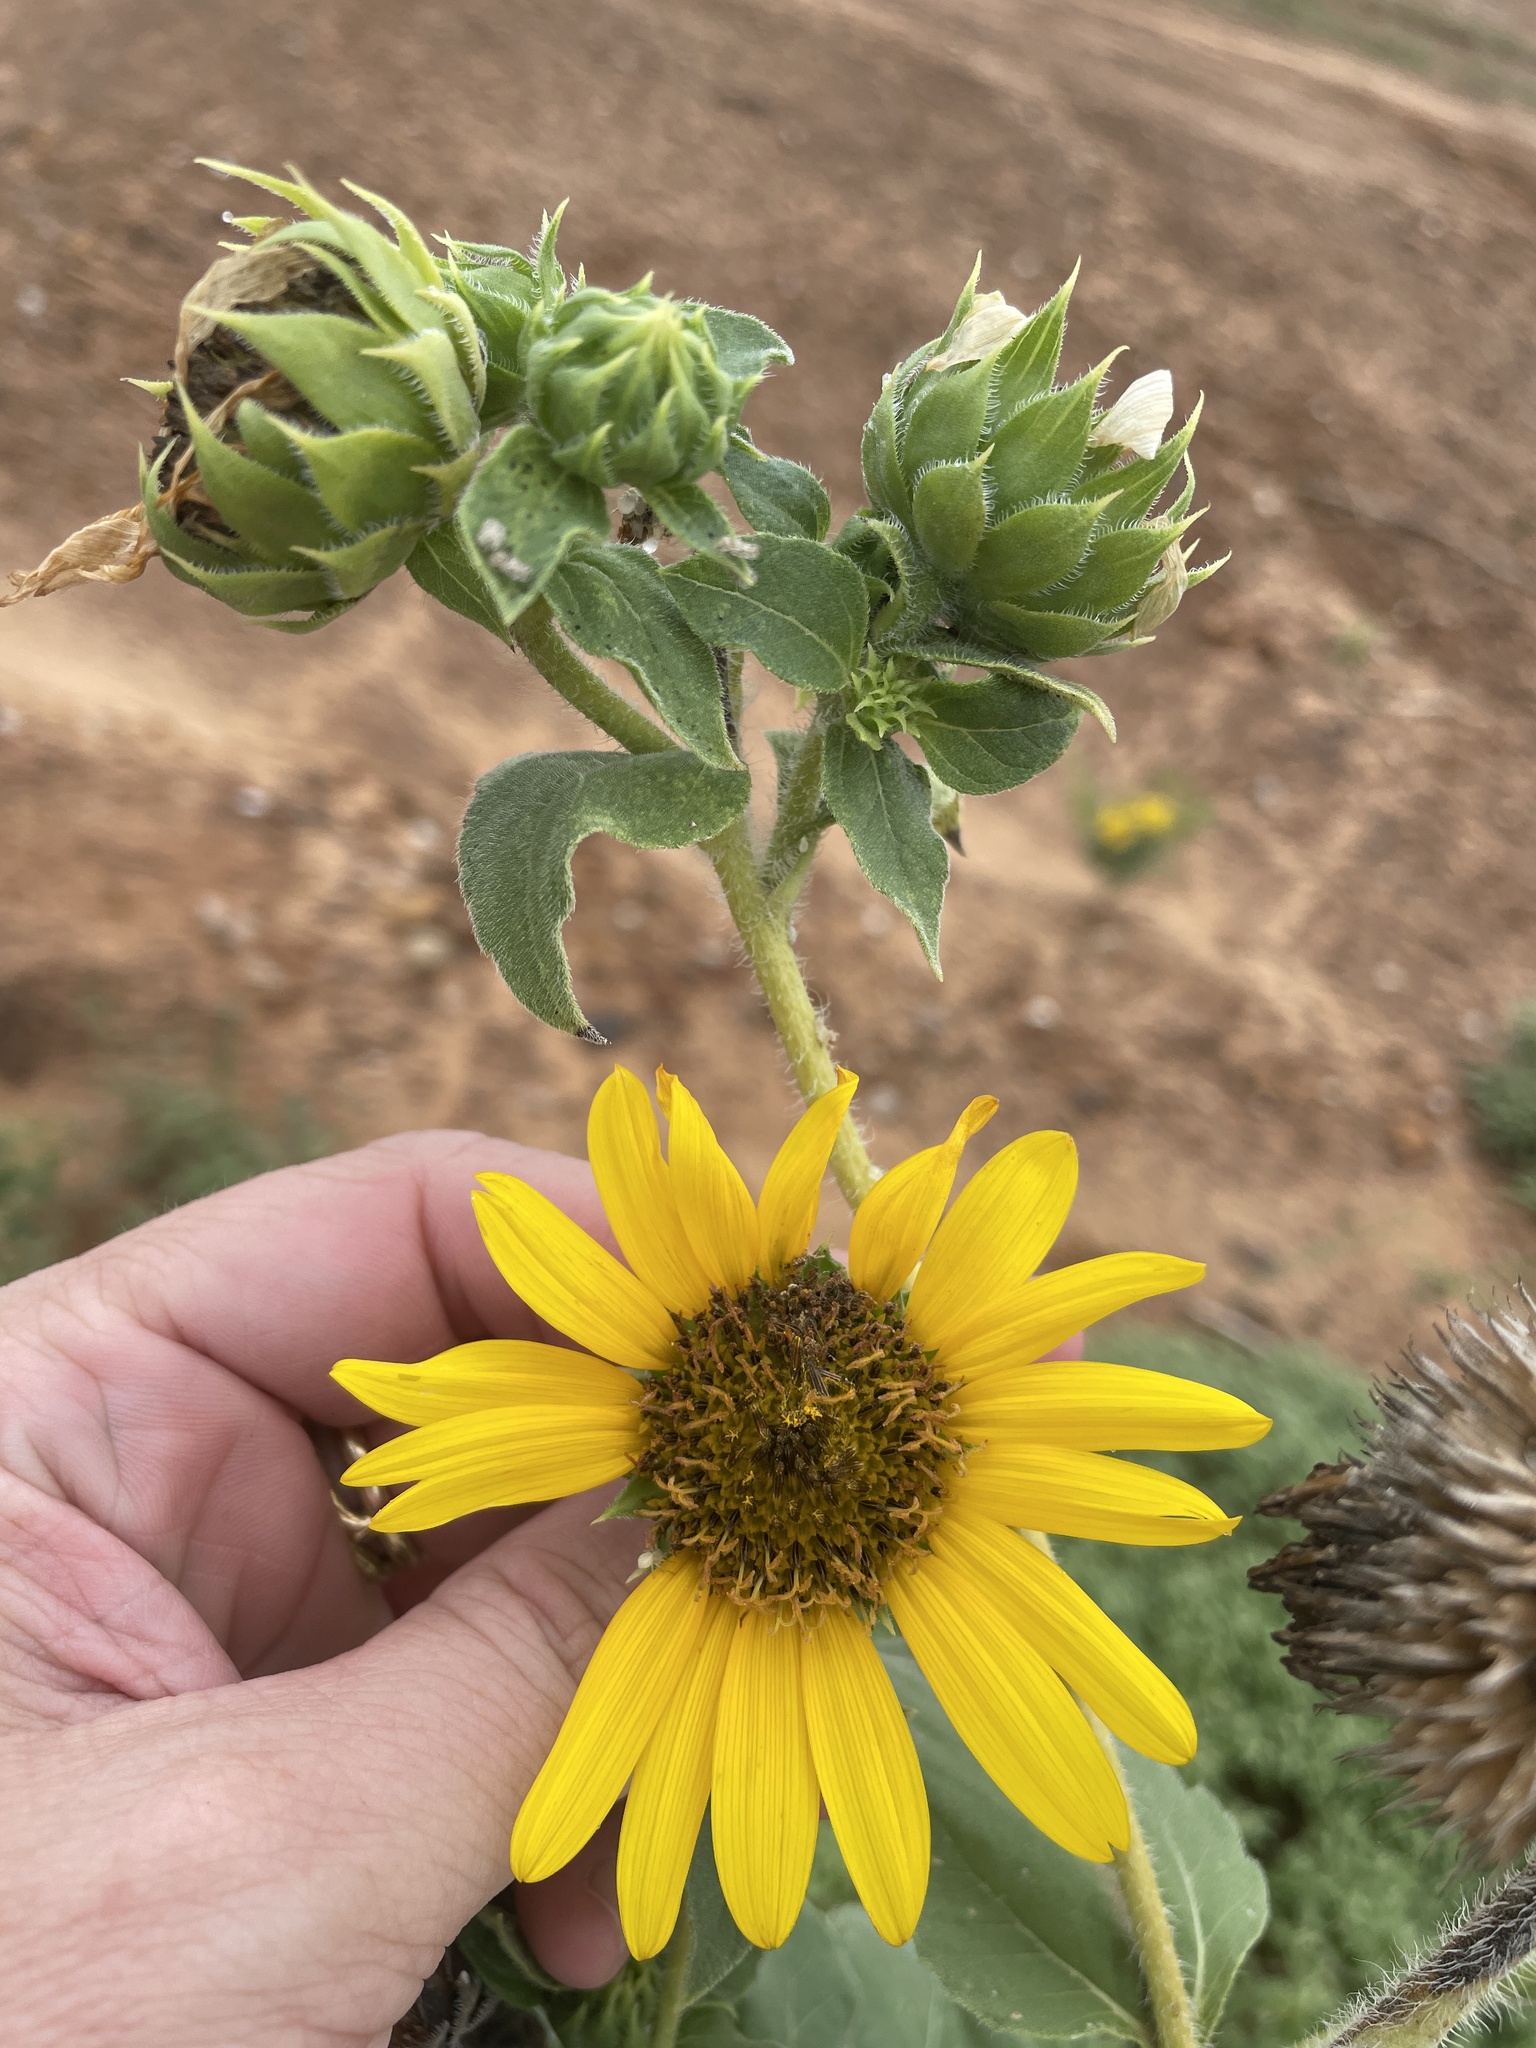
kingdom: Plantae
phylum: Tracheophyta
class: Magnoliopsida
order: Asterales
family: Asteraceae
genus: Helianthus
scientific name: Helianthus annuus
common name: Sunflower
